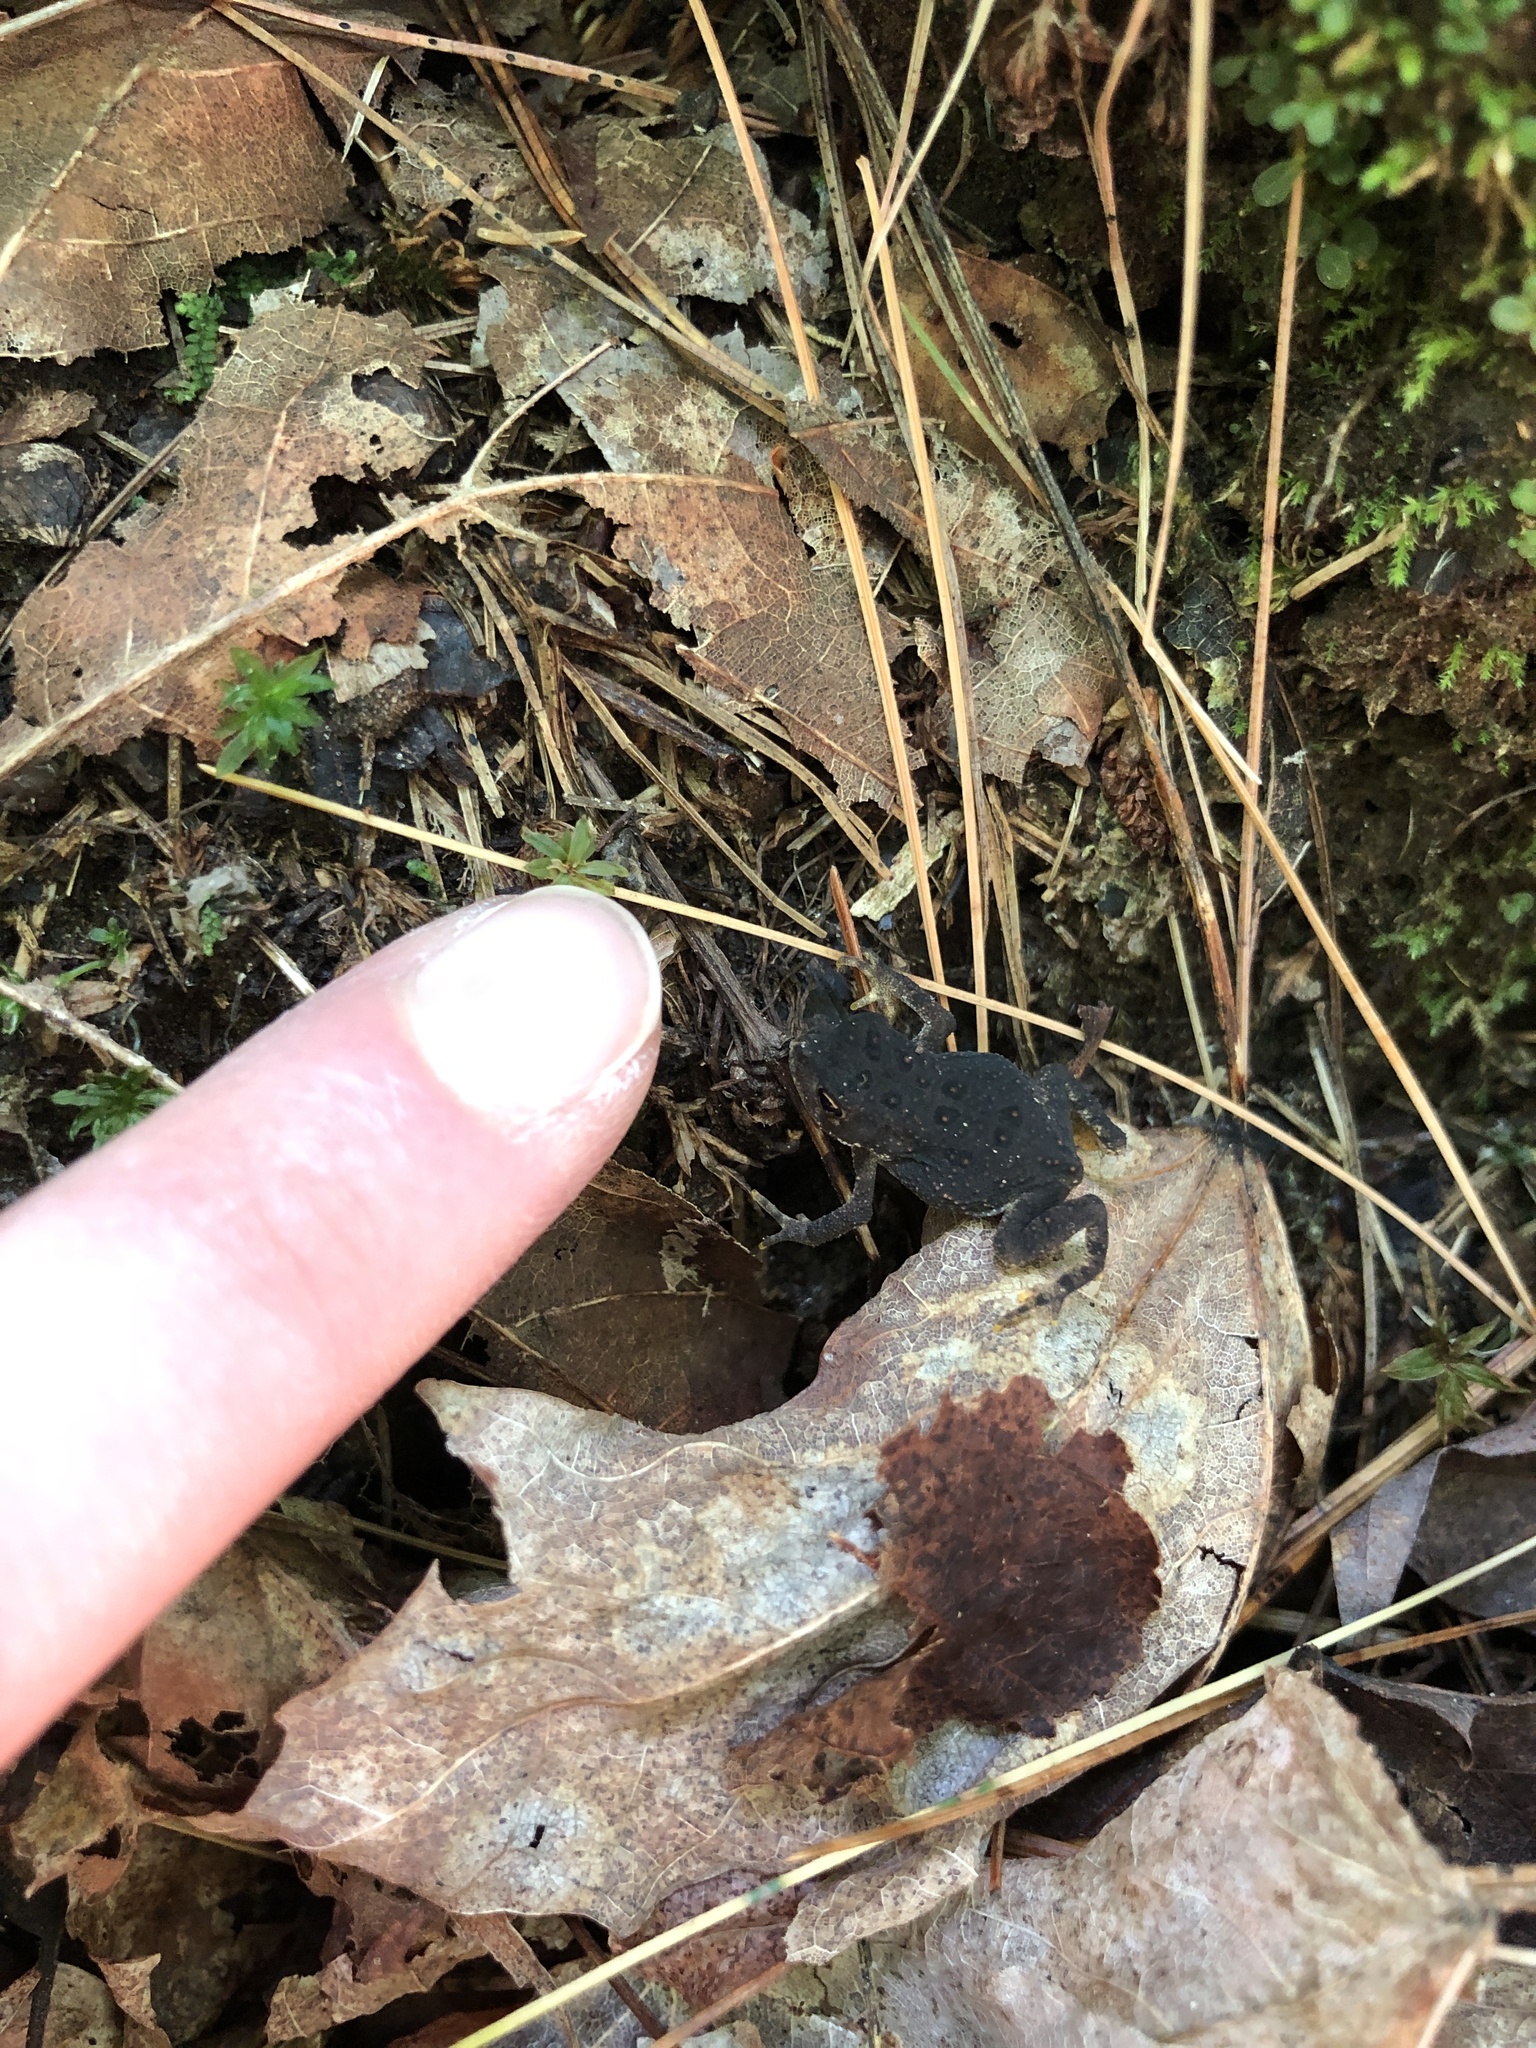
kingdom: Animalia
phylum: Chordata
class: Amphibia
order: Anura
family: Bufonidae
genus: Anaxyrus
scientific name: Anaxyrus americanus
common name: American toad
